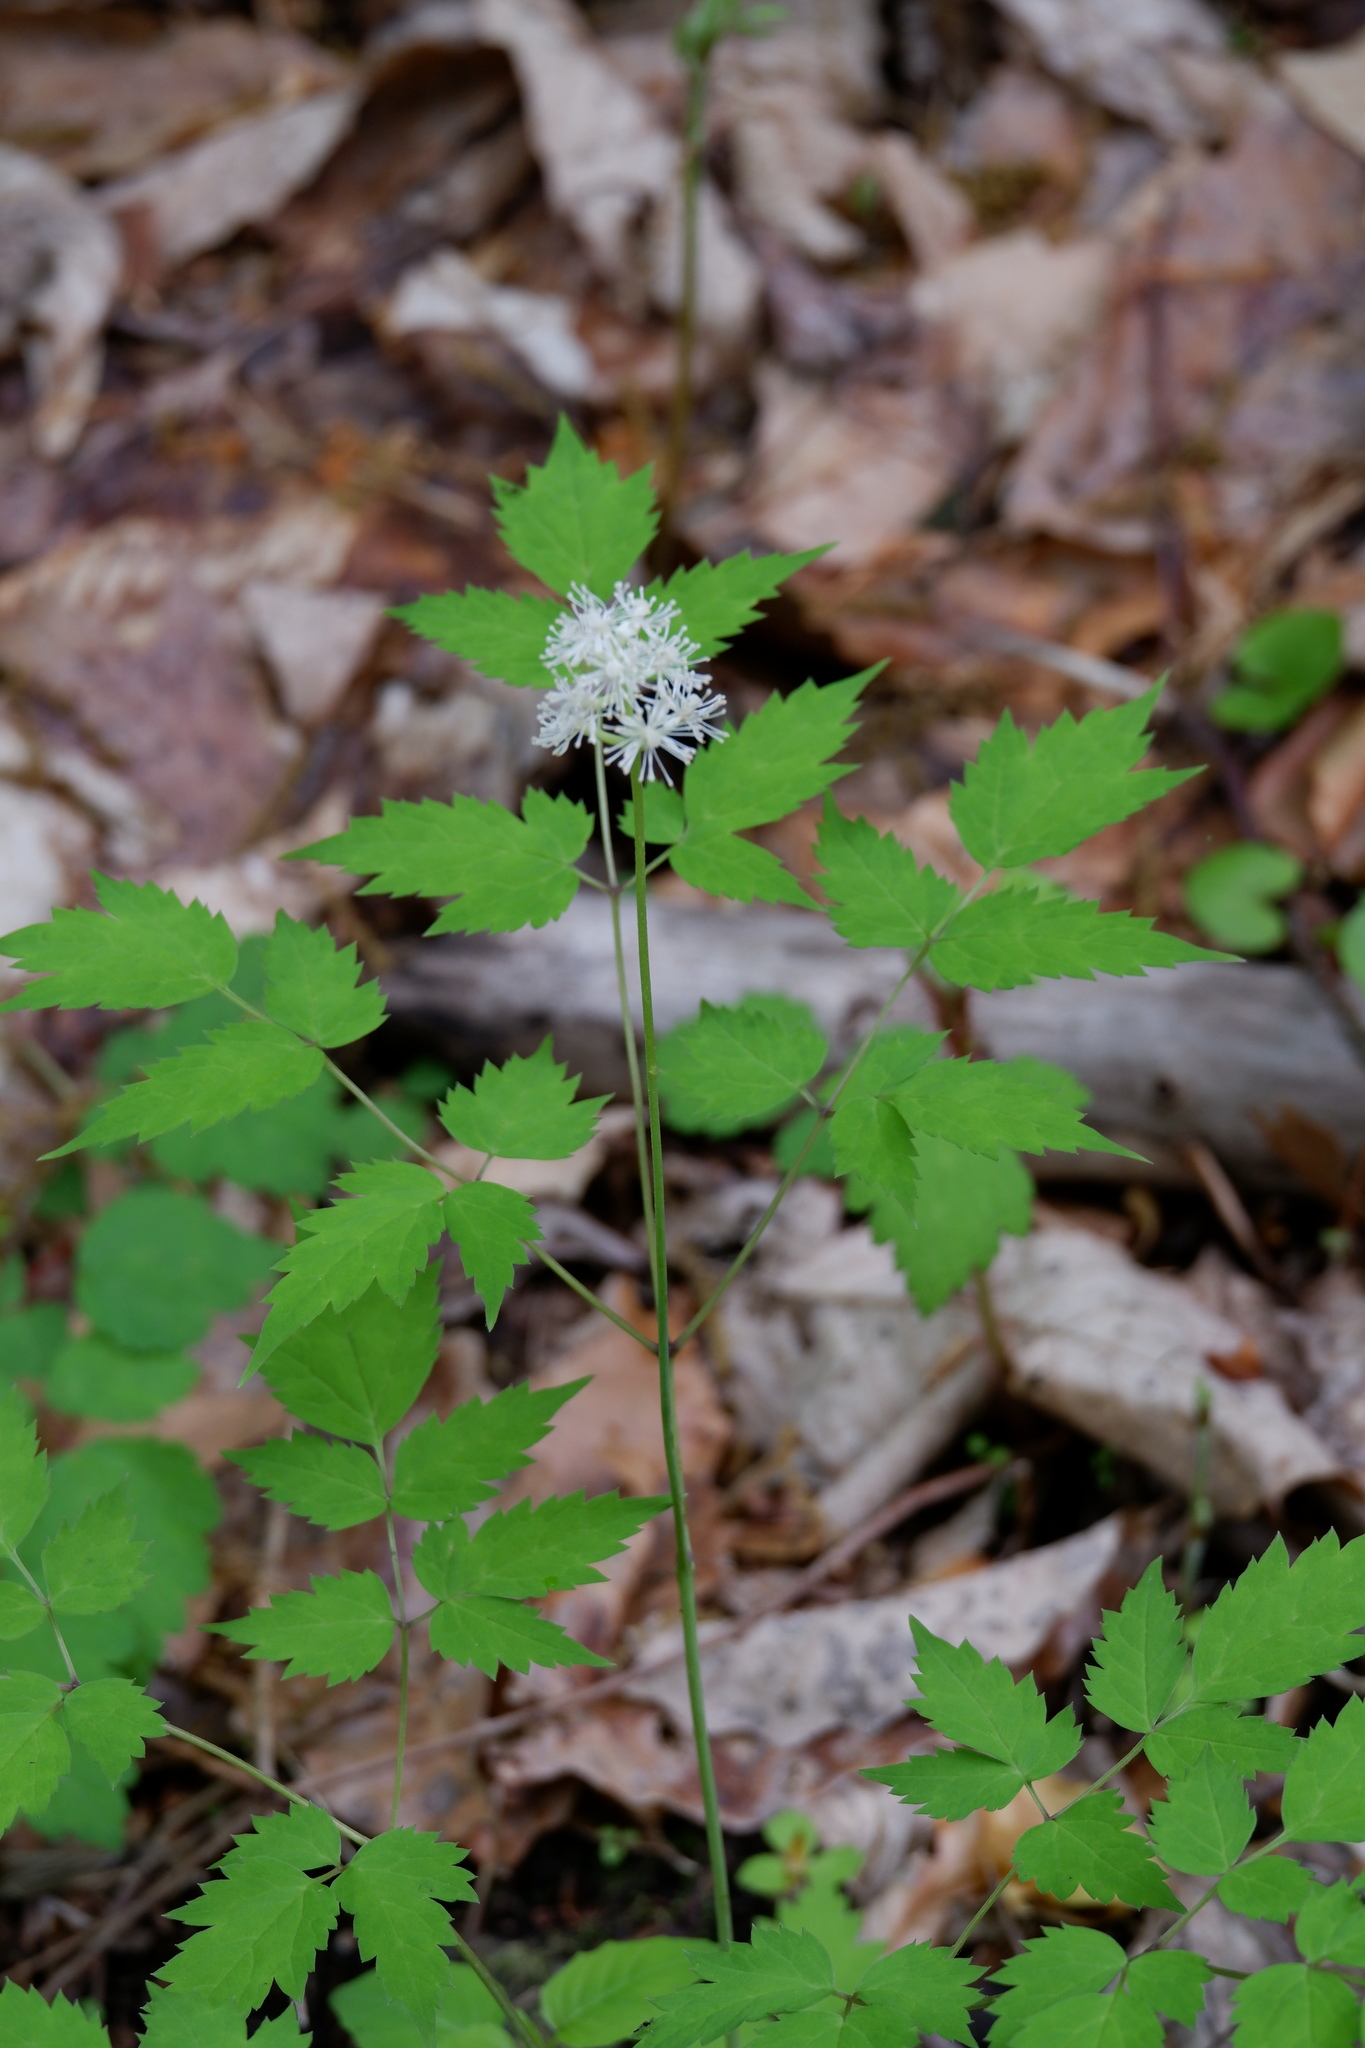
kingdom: Plantae
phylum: Tracheophyta
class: Magnoliopsida
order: Ranunculales
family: Ranunculaceae
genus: Actaea
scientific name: Actaea pachypoda
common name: Doll's-eyes
